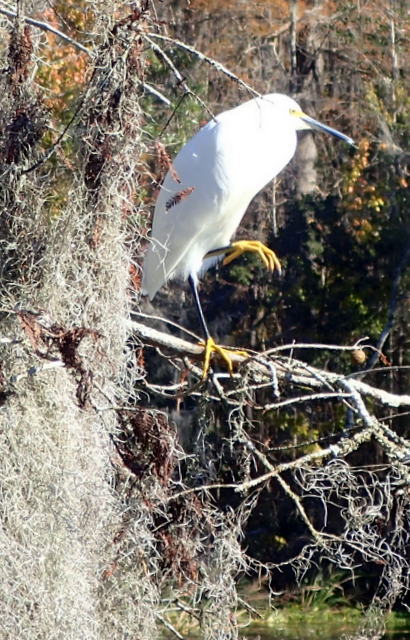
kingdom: Animalia
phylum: Chordata
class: Aves
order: Pelecaniformes
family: Ardeidae
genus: Egretta
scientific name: Egretta thula
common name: Snowy egret
